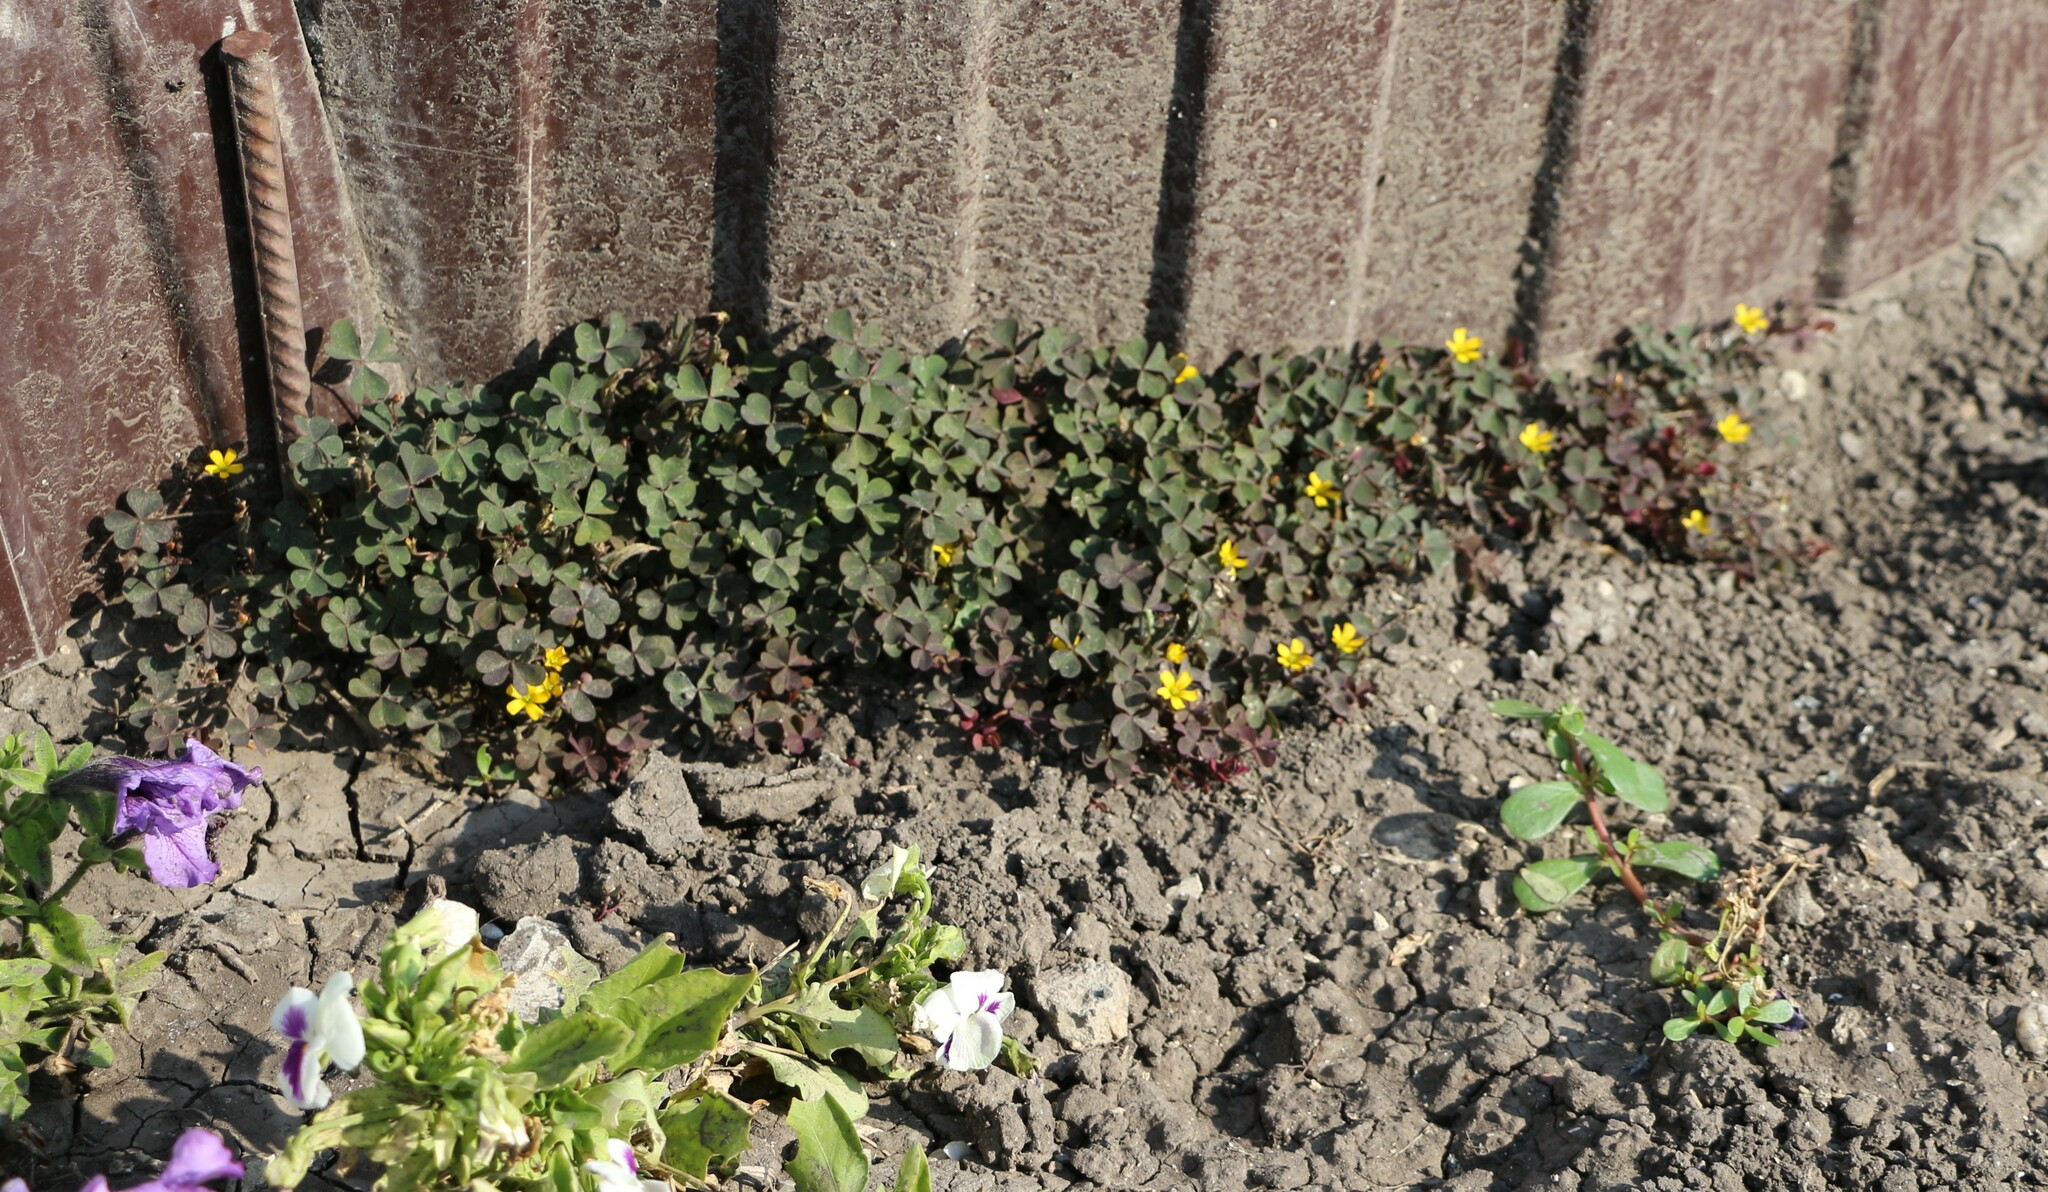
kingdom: Plantae
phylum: Tracheophyta
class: Magnoliopsida
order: Oxalidales
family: Oxalidaceae
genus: Oxalis
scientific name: Oxalis corniculata
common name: Procumbent yellow-sorrel
